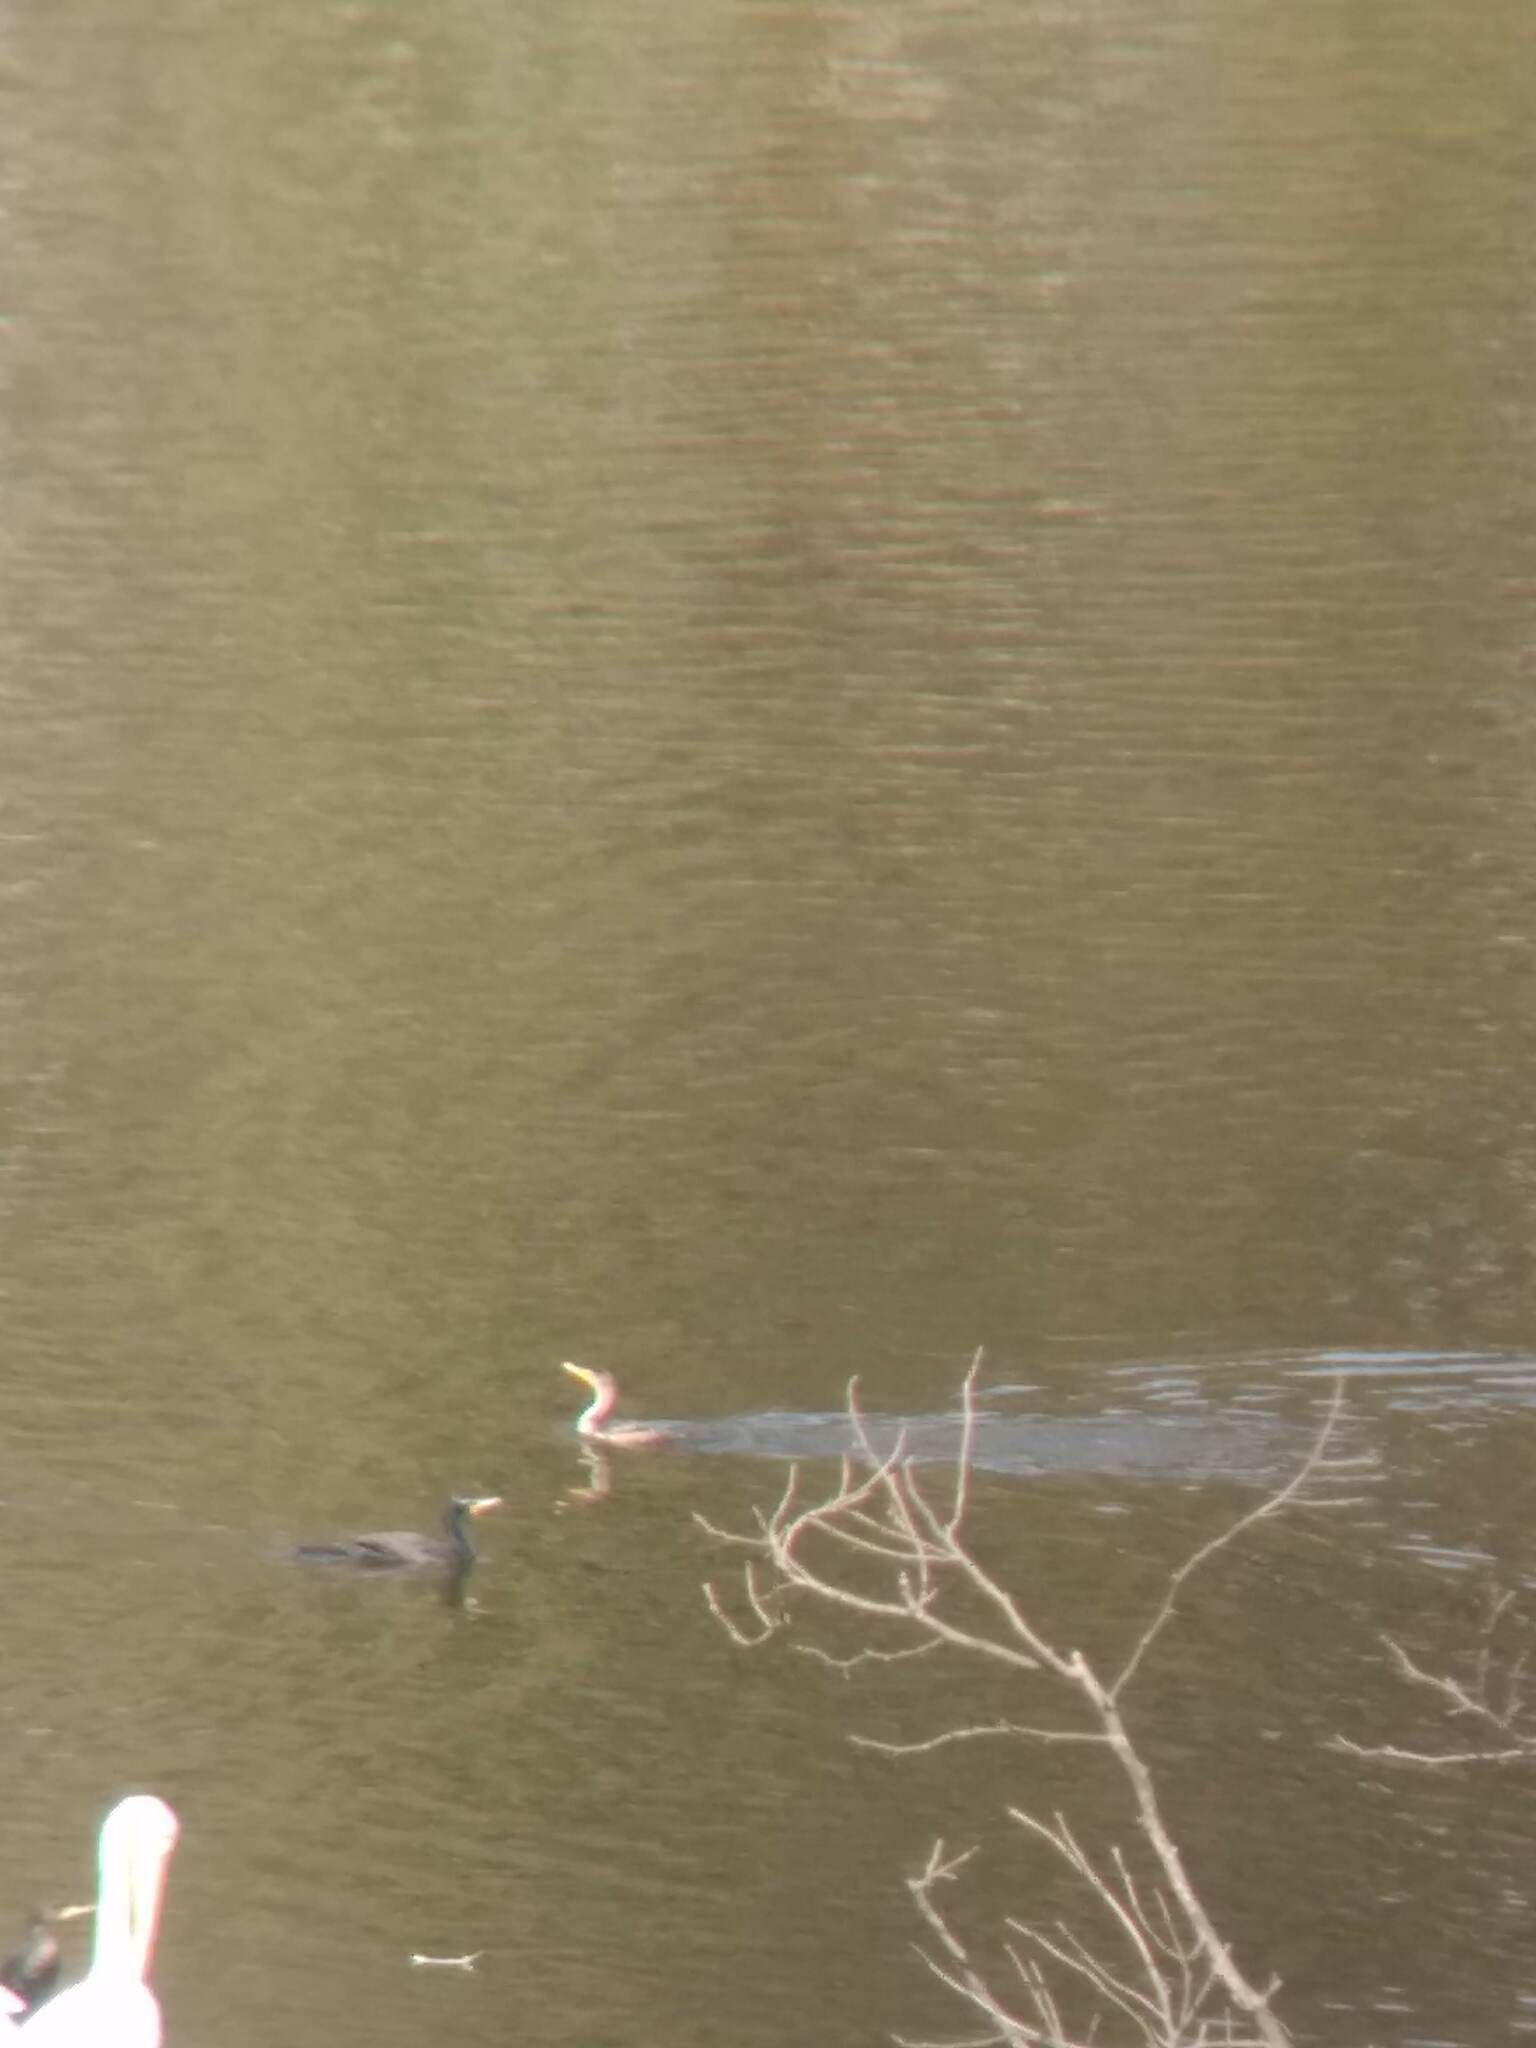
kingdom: Animalia
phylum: Chordata
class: Aves
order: Suliformes
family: Phalacrocoracidae
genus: Phalacrocorax
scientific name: Phalacrocorax auritus
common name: Double-crested cormorant
